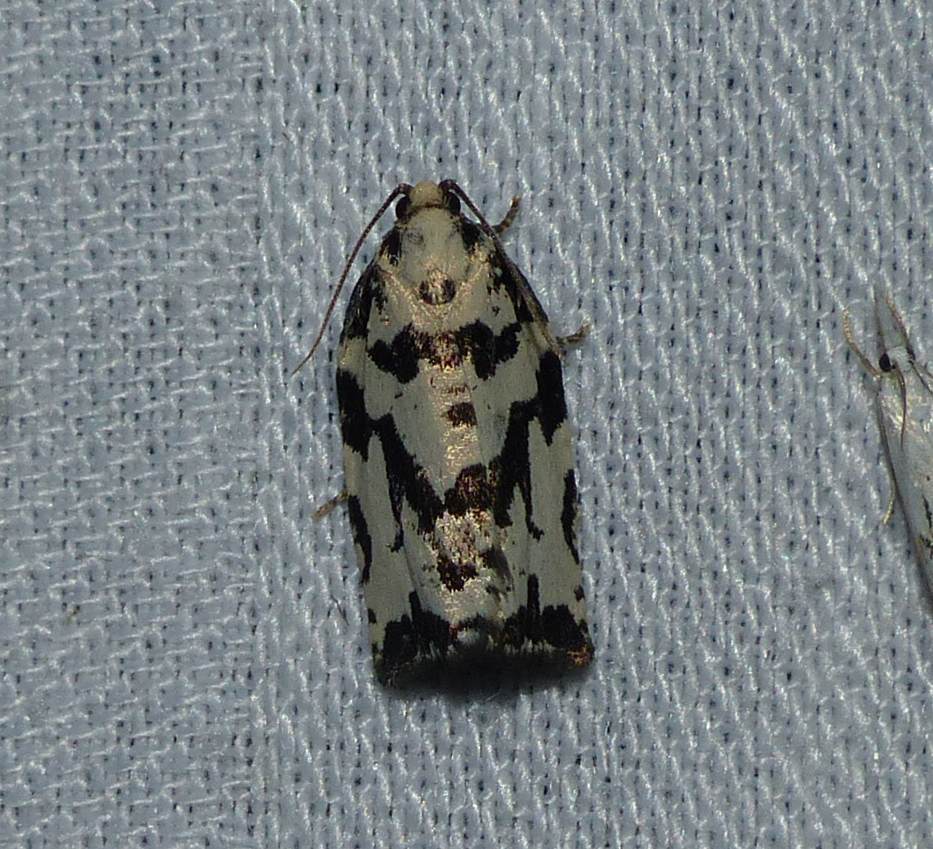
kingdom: Animalia
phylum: Arthropoda
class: Insecta
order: Lepidoptera
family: Tortricidae
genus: Archips
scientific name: Archips dissitana
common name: Boldly-marked archips moth
